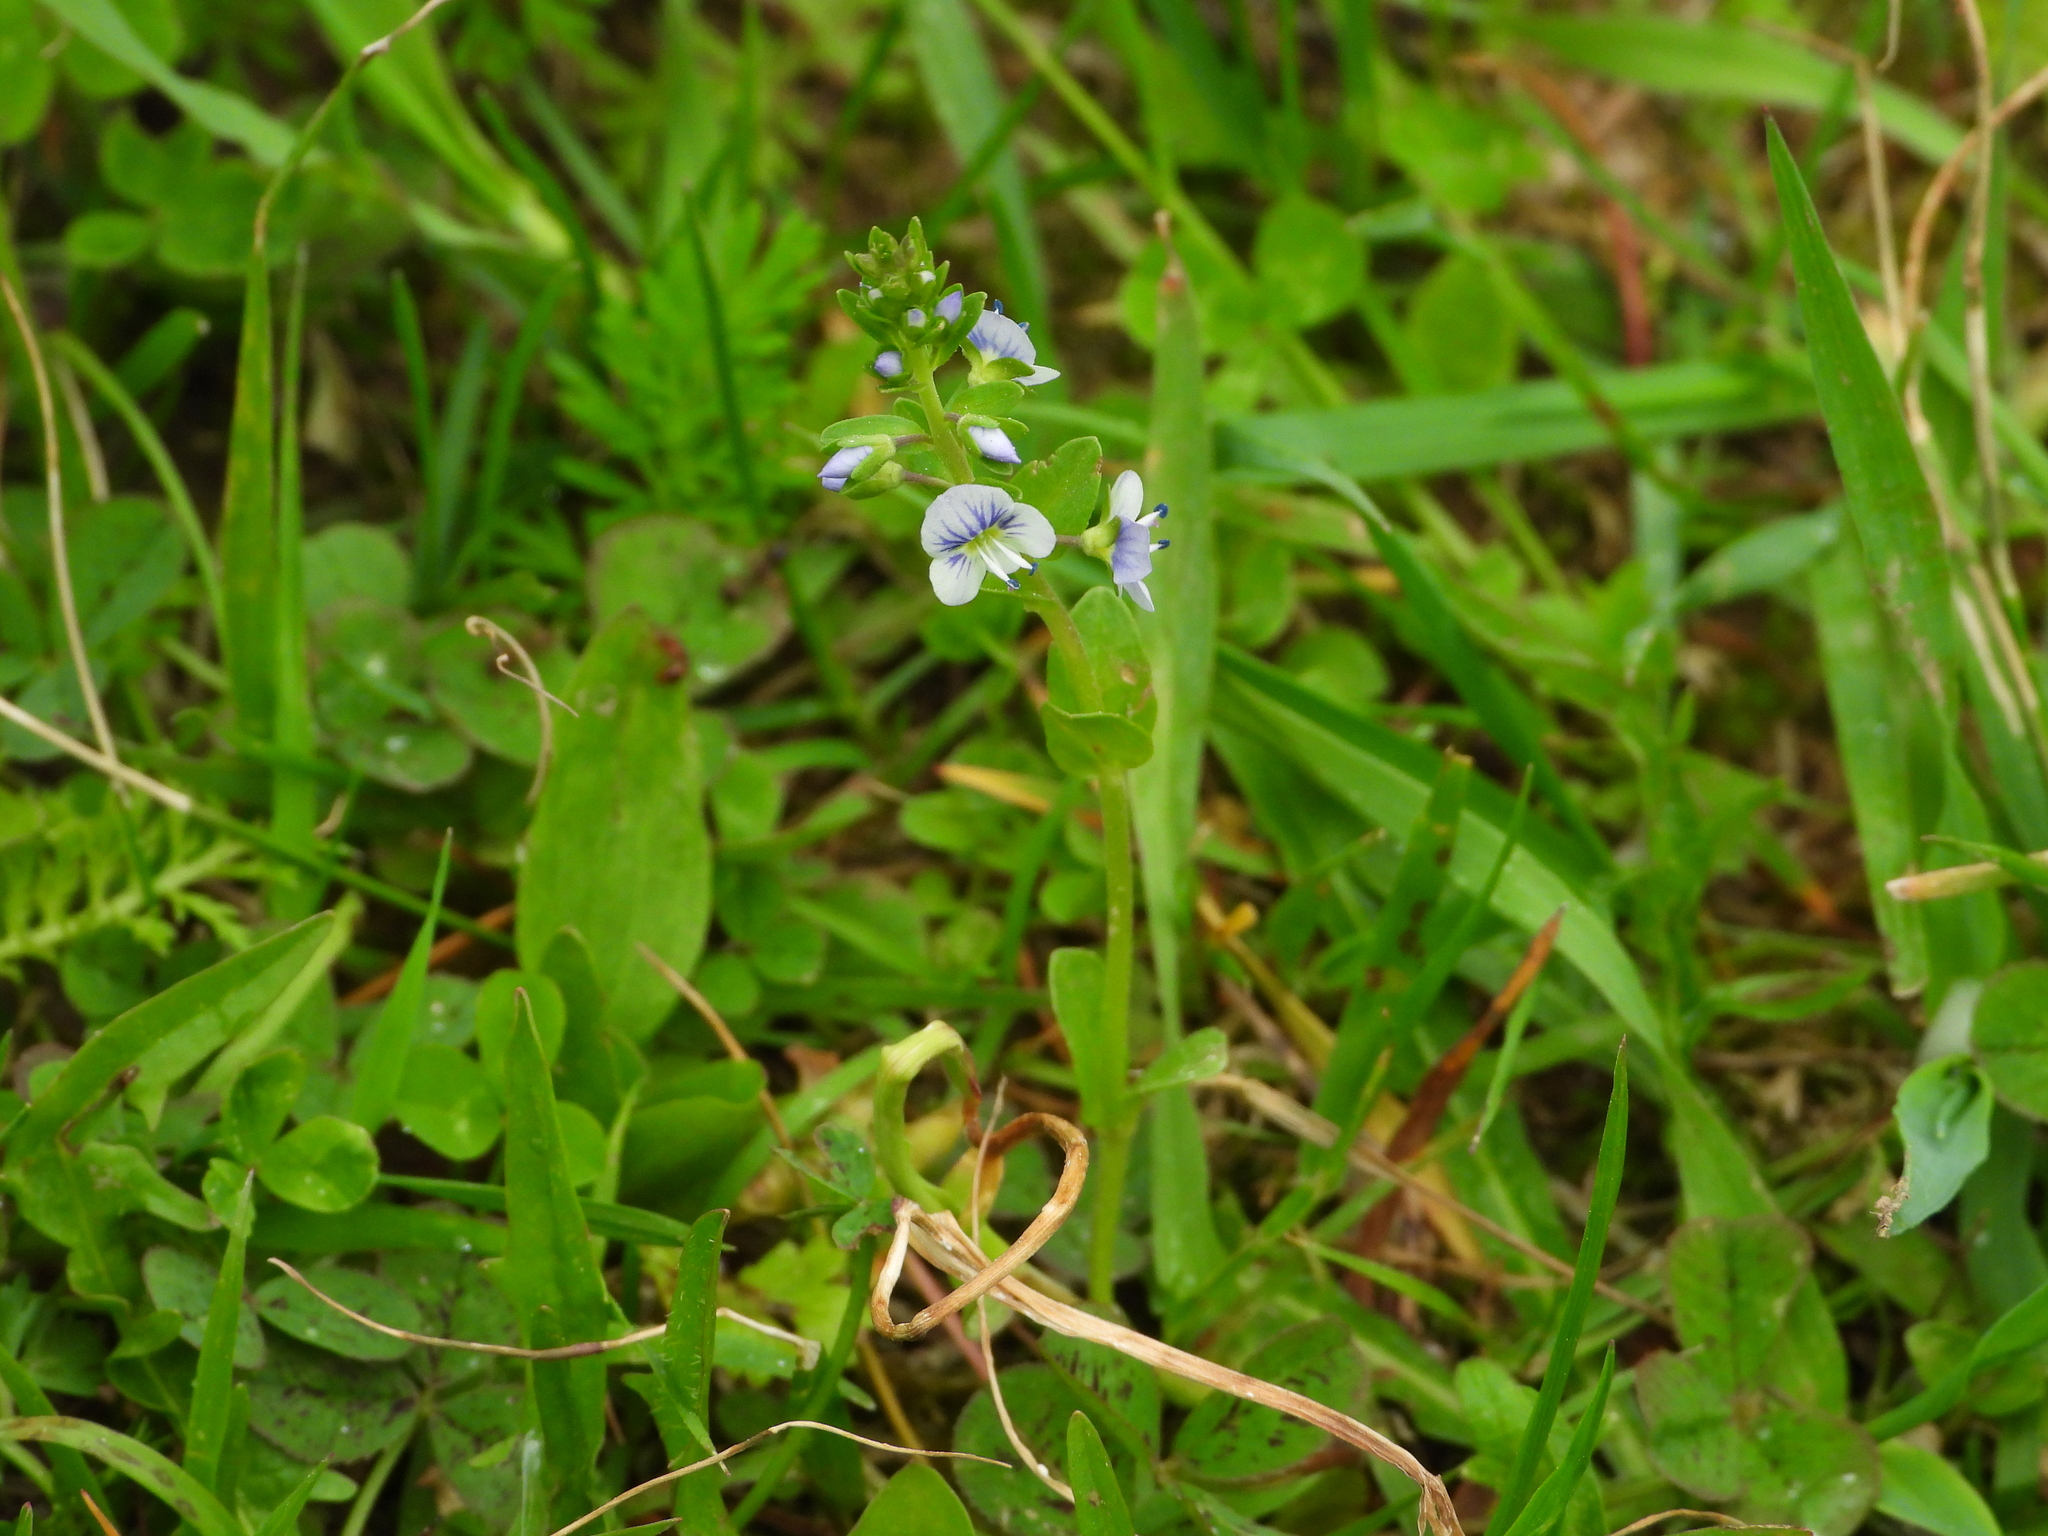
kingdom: Plantae
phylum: Tracheophyta
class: Magnoliopsida
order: Lamiales
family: Plantaginaceae
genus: Veronica
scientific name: Veronica serpyllifolia
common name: Thyme-leaved speedwell
